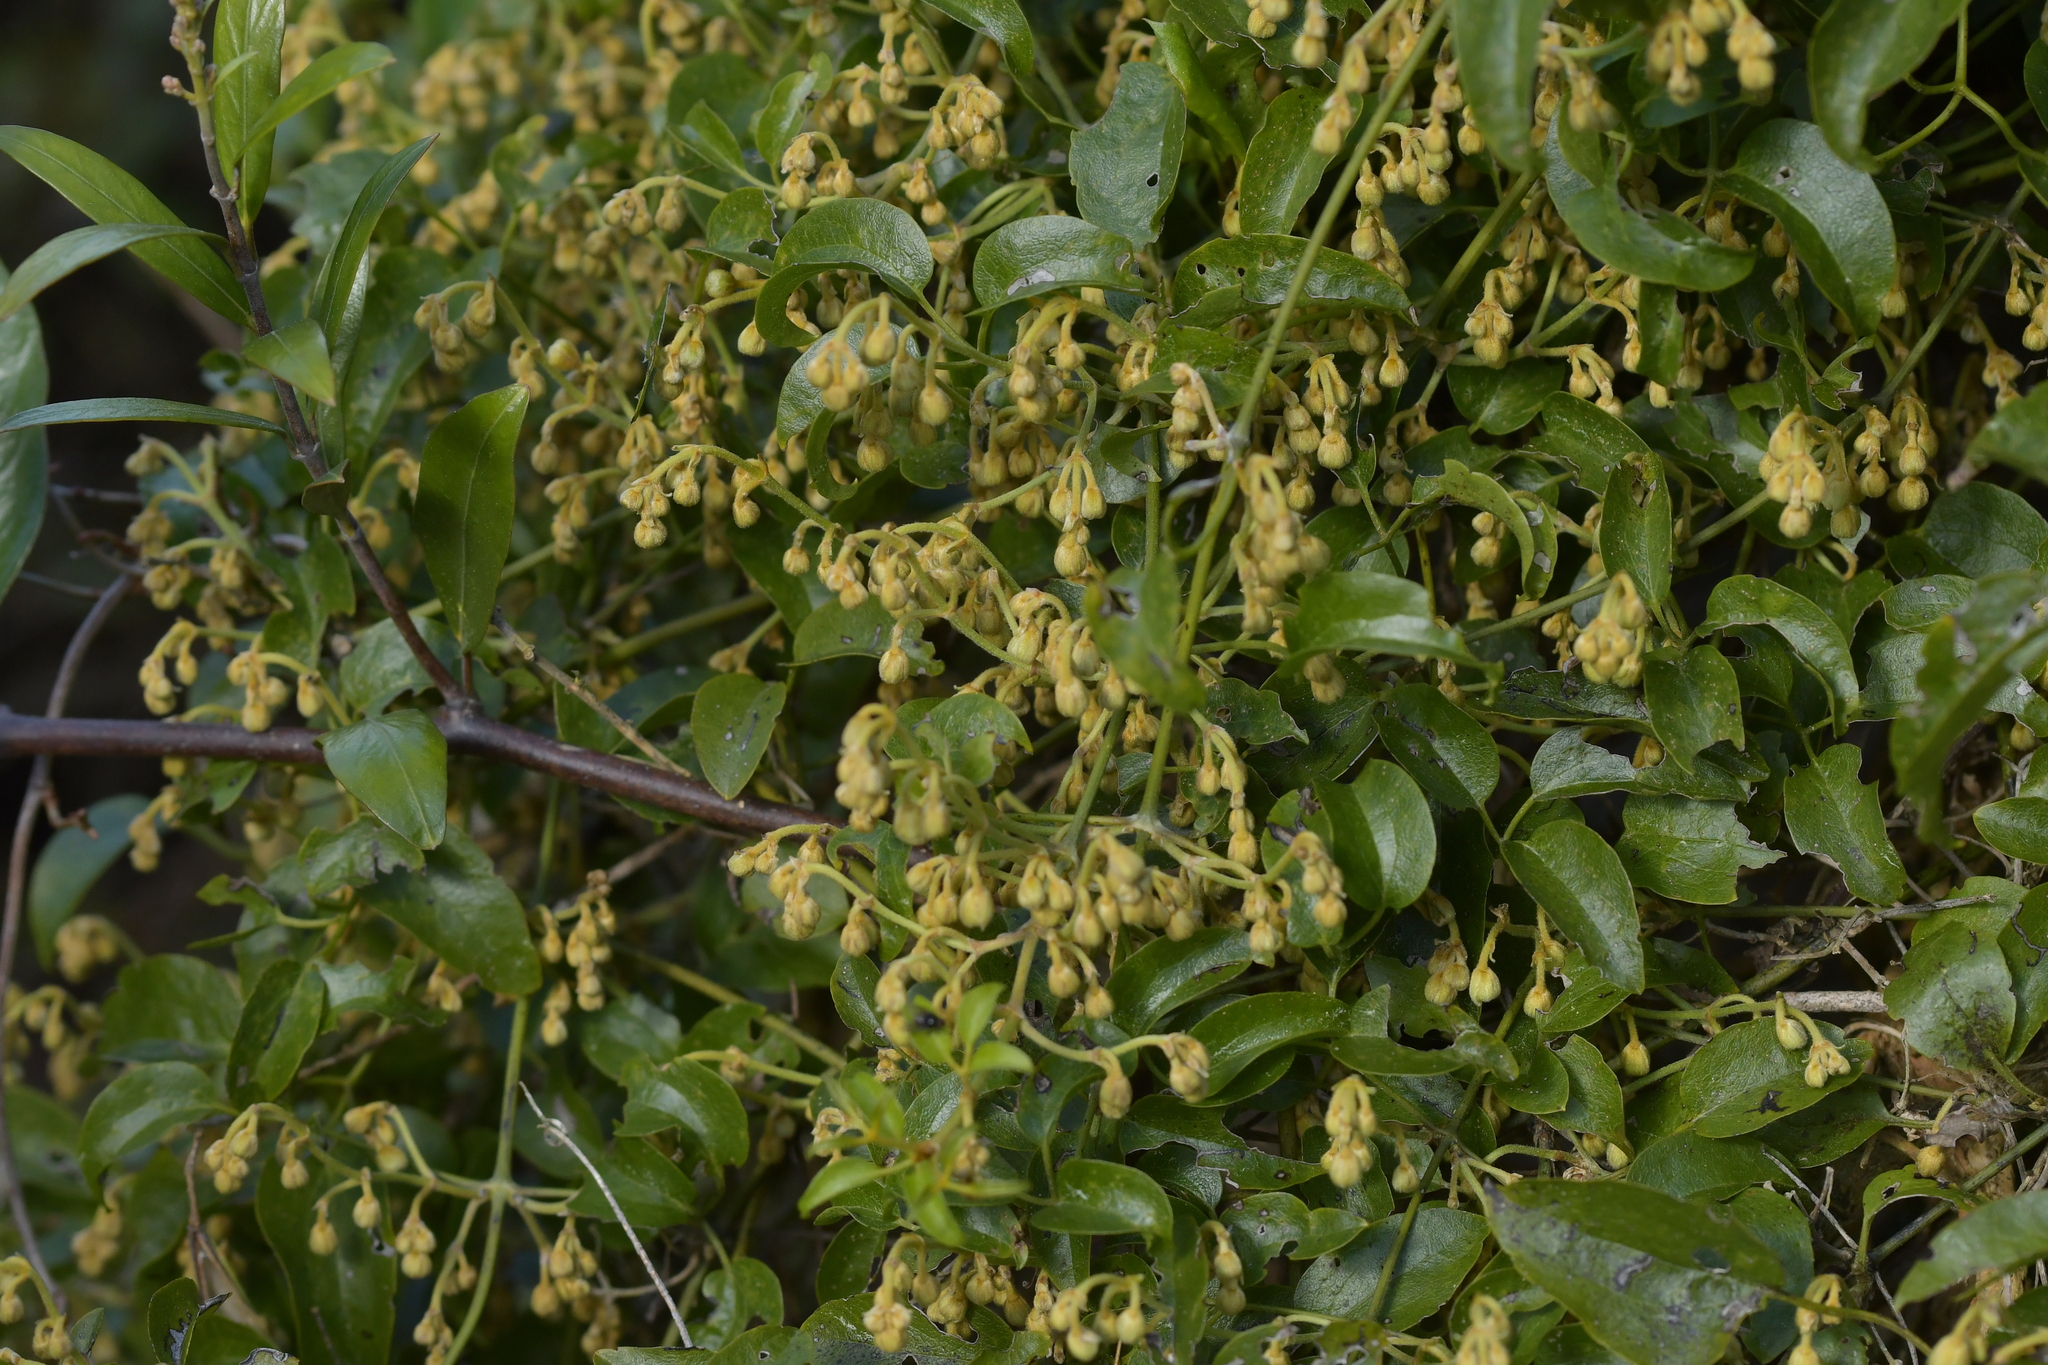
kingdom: Plantae
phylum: Tracheophyta
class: Magnoliopsida
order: Ranunculales
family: Ranunculaceae
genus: Clematis
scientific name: Clematis foetida
